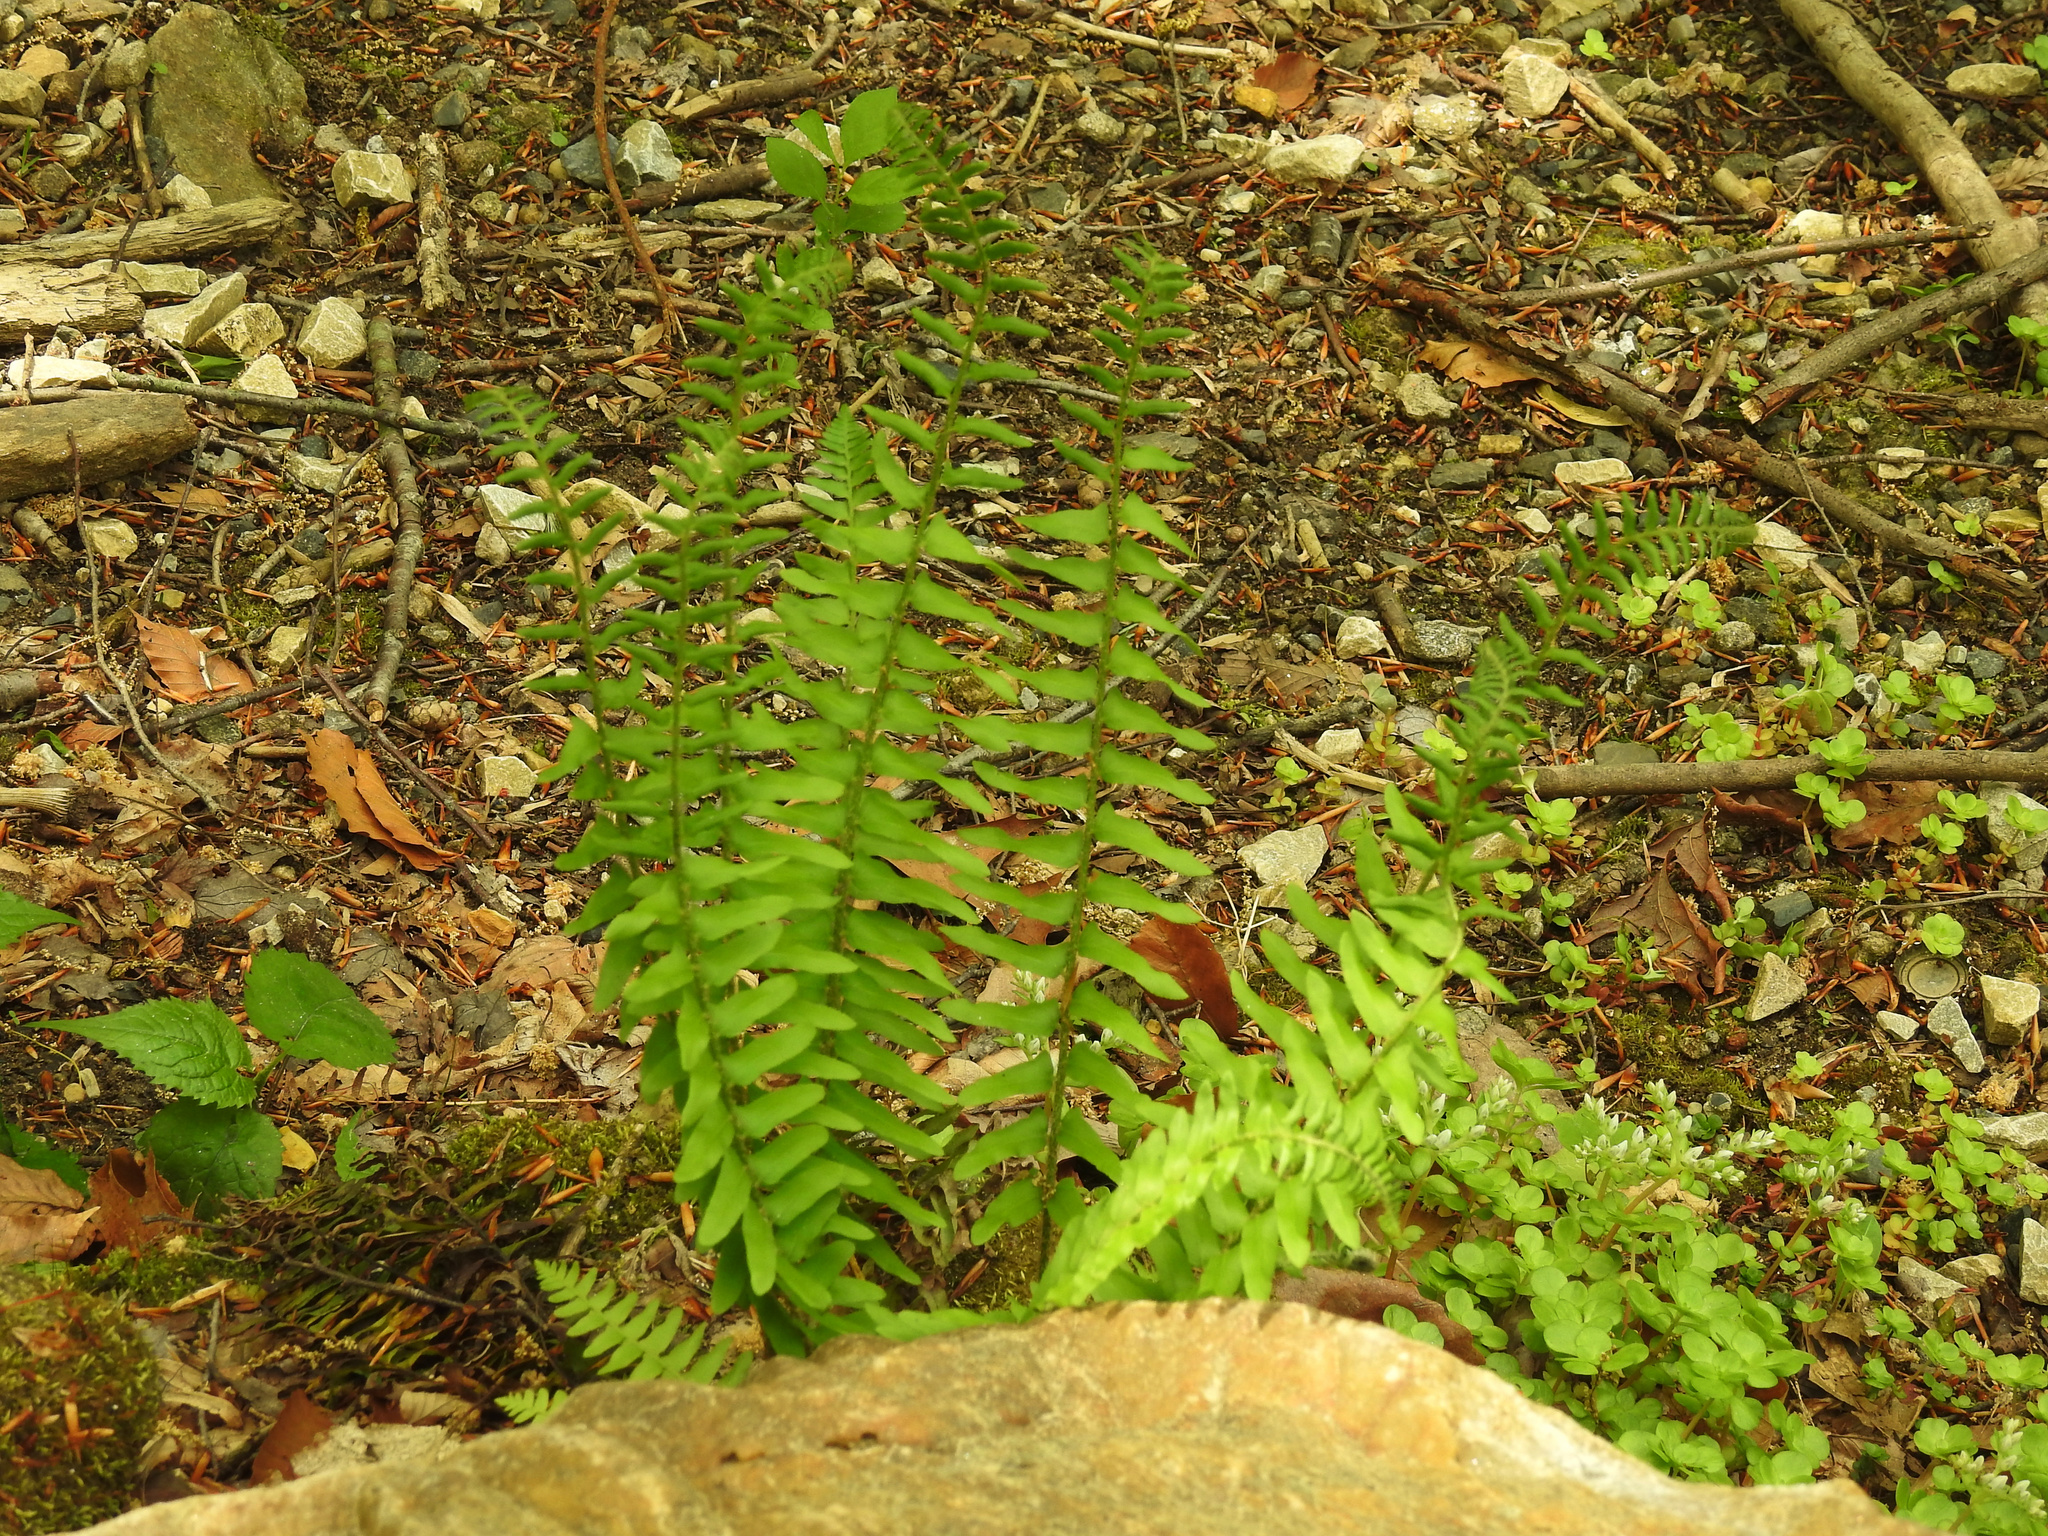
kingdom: Plantae
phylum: Tracheophyta
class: Polypodiopsida
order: Polypodiales
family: Dryopteridaceae
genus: Polystichum
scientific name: Polystichum acrostichoides
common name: Christmas fern
